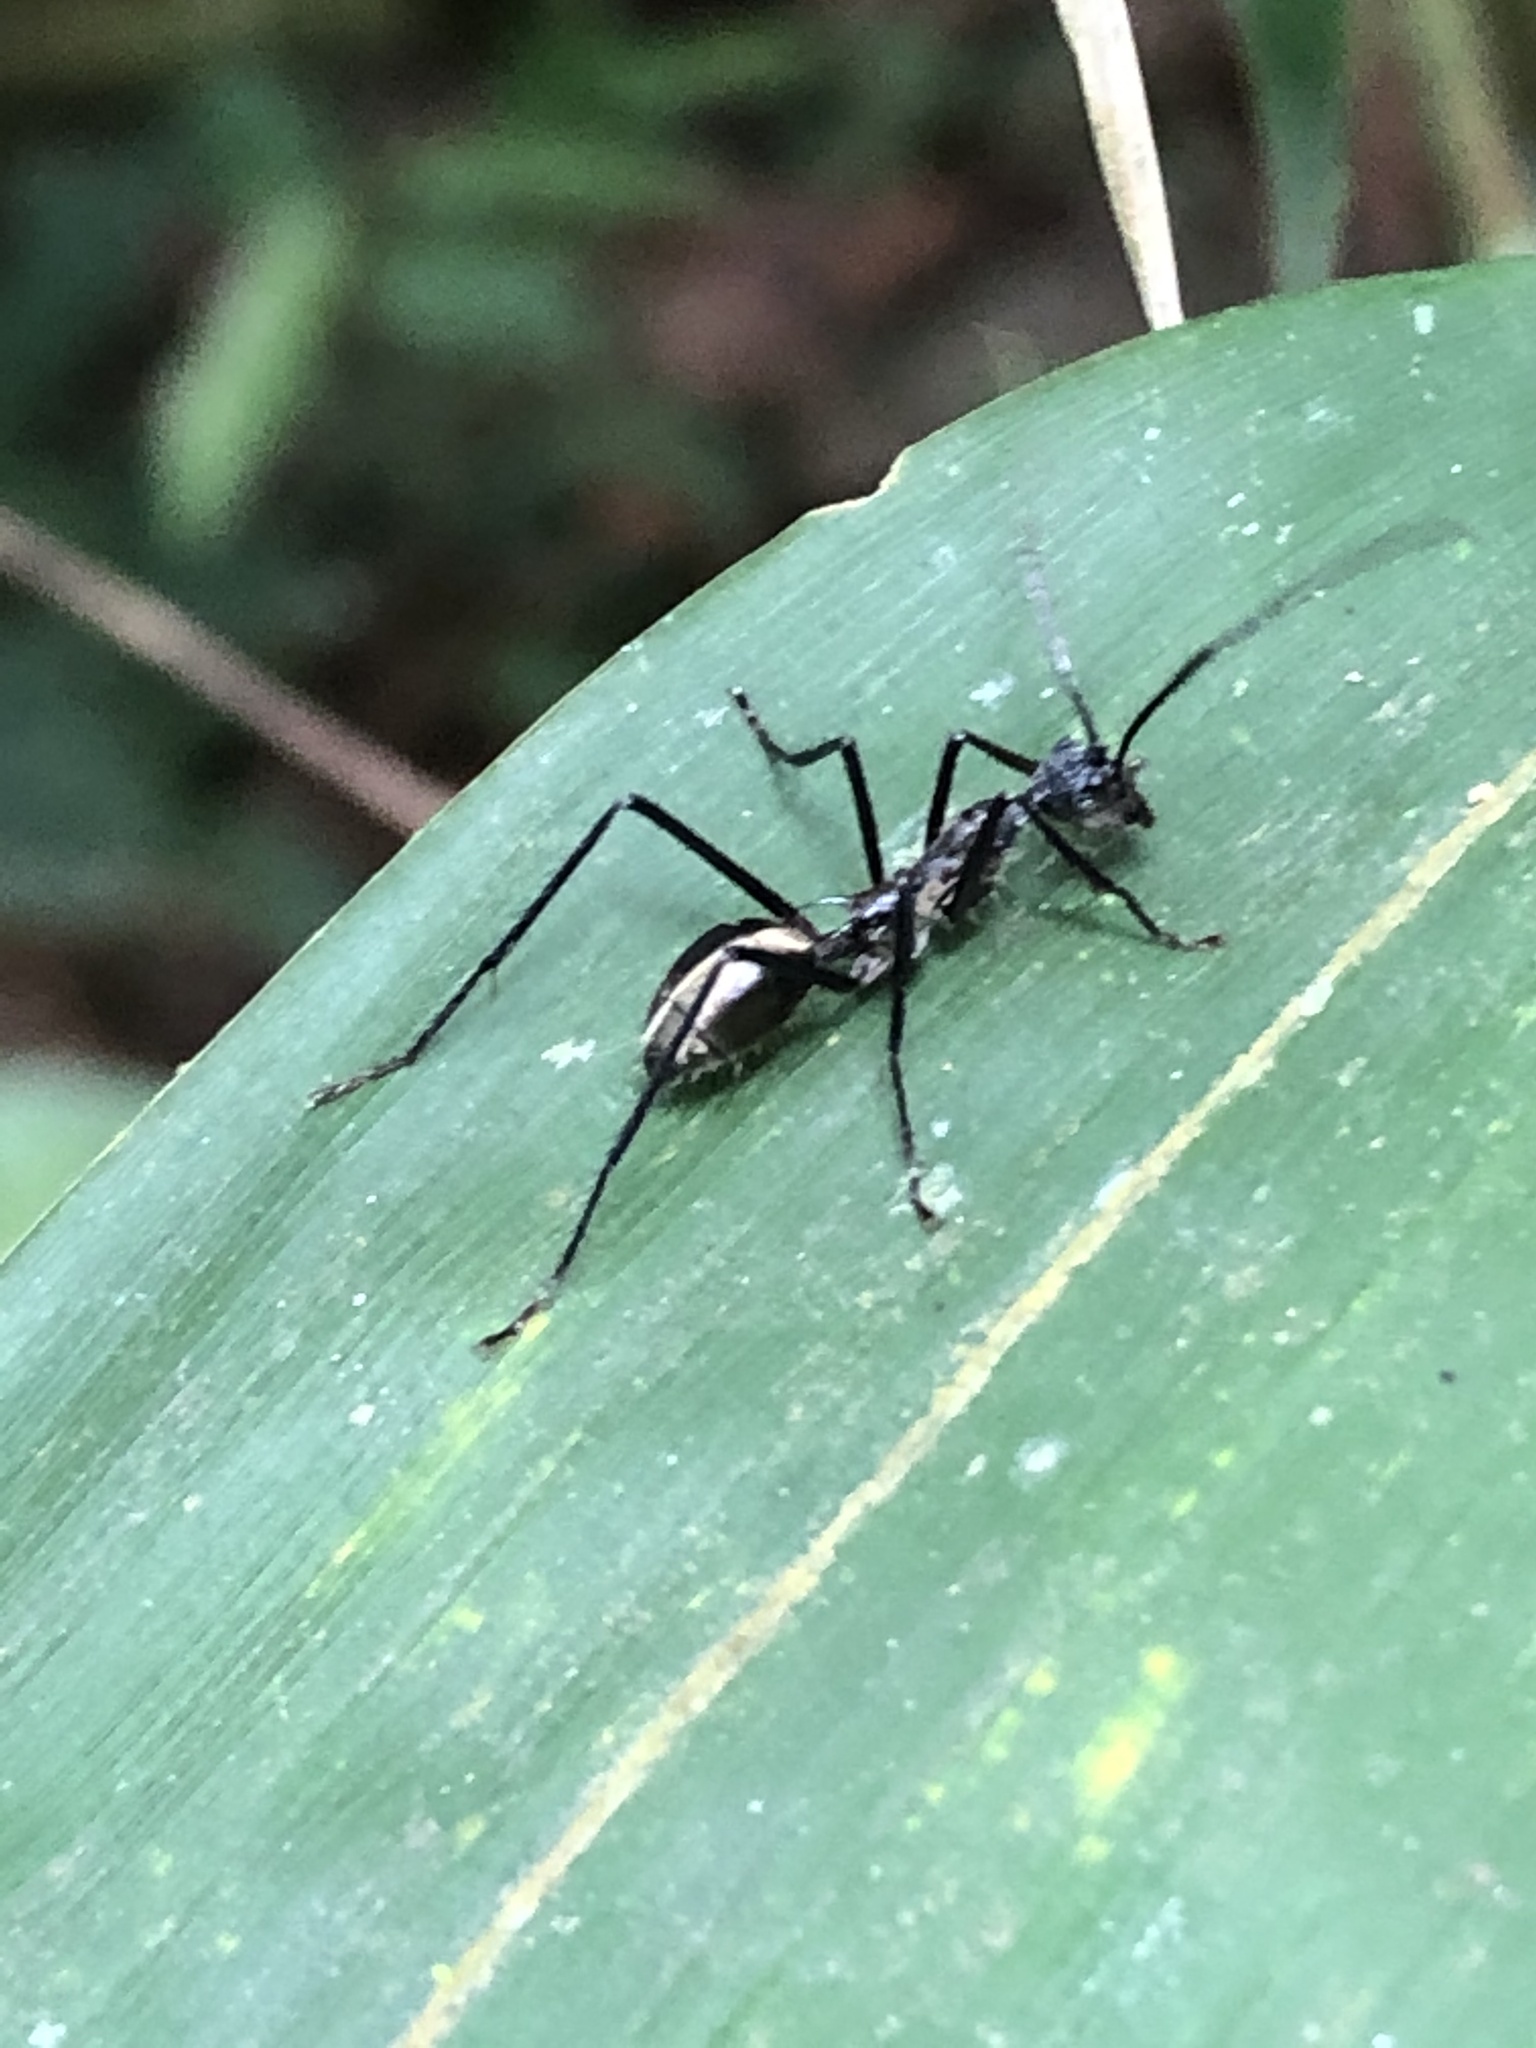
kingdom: Animalia
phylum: Arthropoda
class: Insecta
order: Hymenoptera
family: Formicidae
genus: Dolichoderus
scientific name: Dolichoderus rugosus
